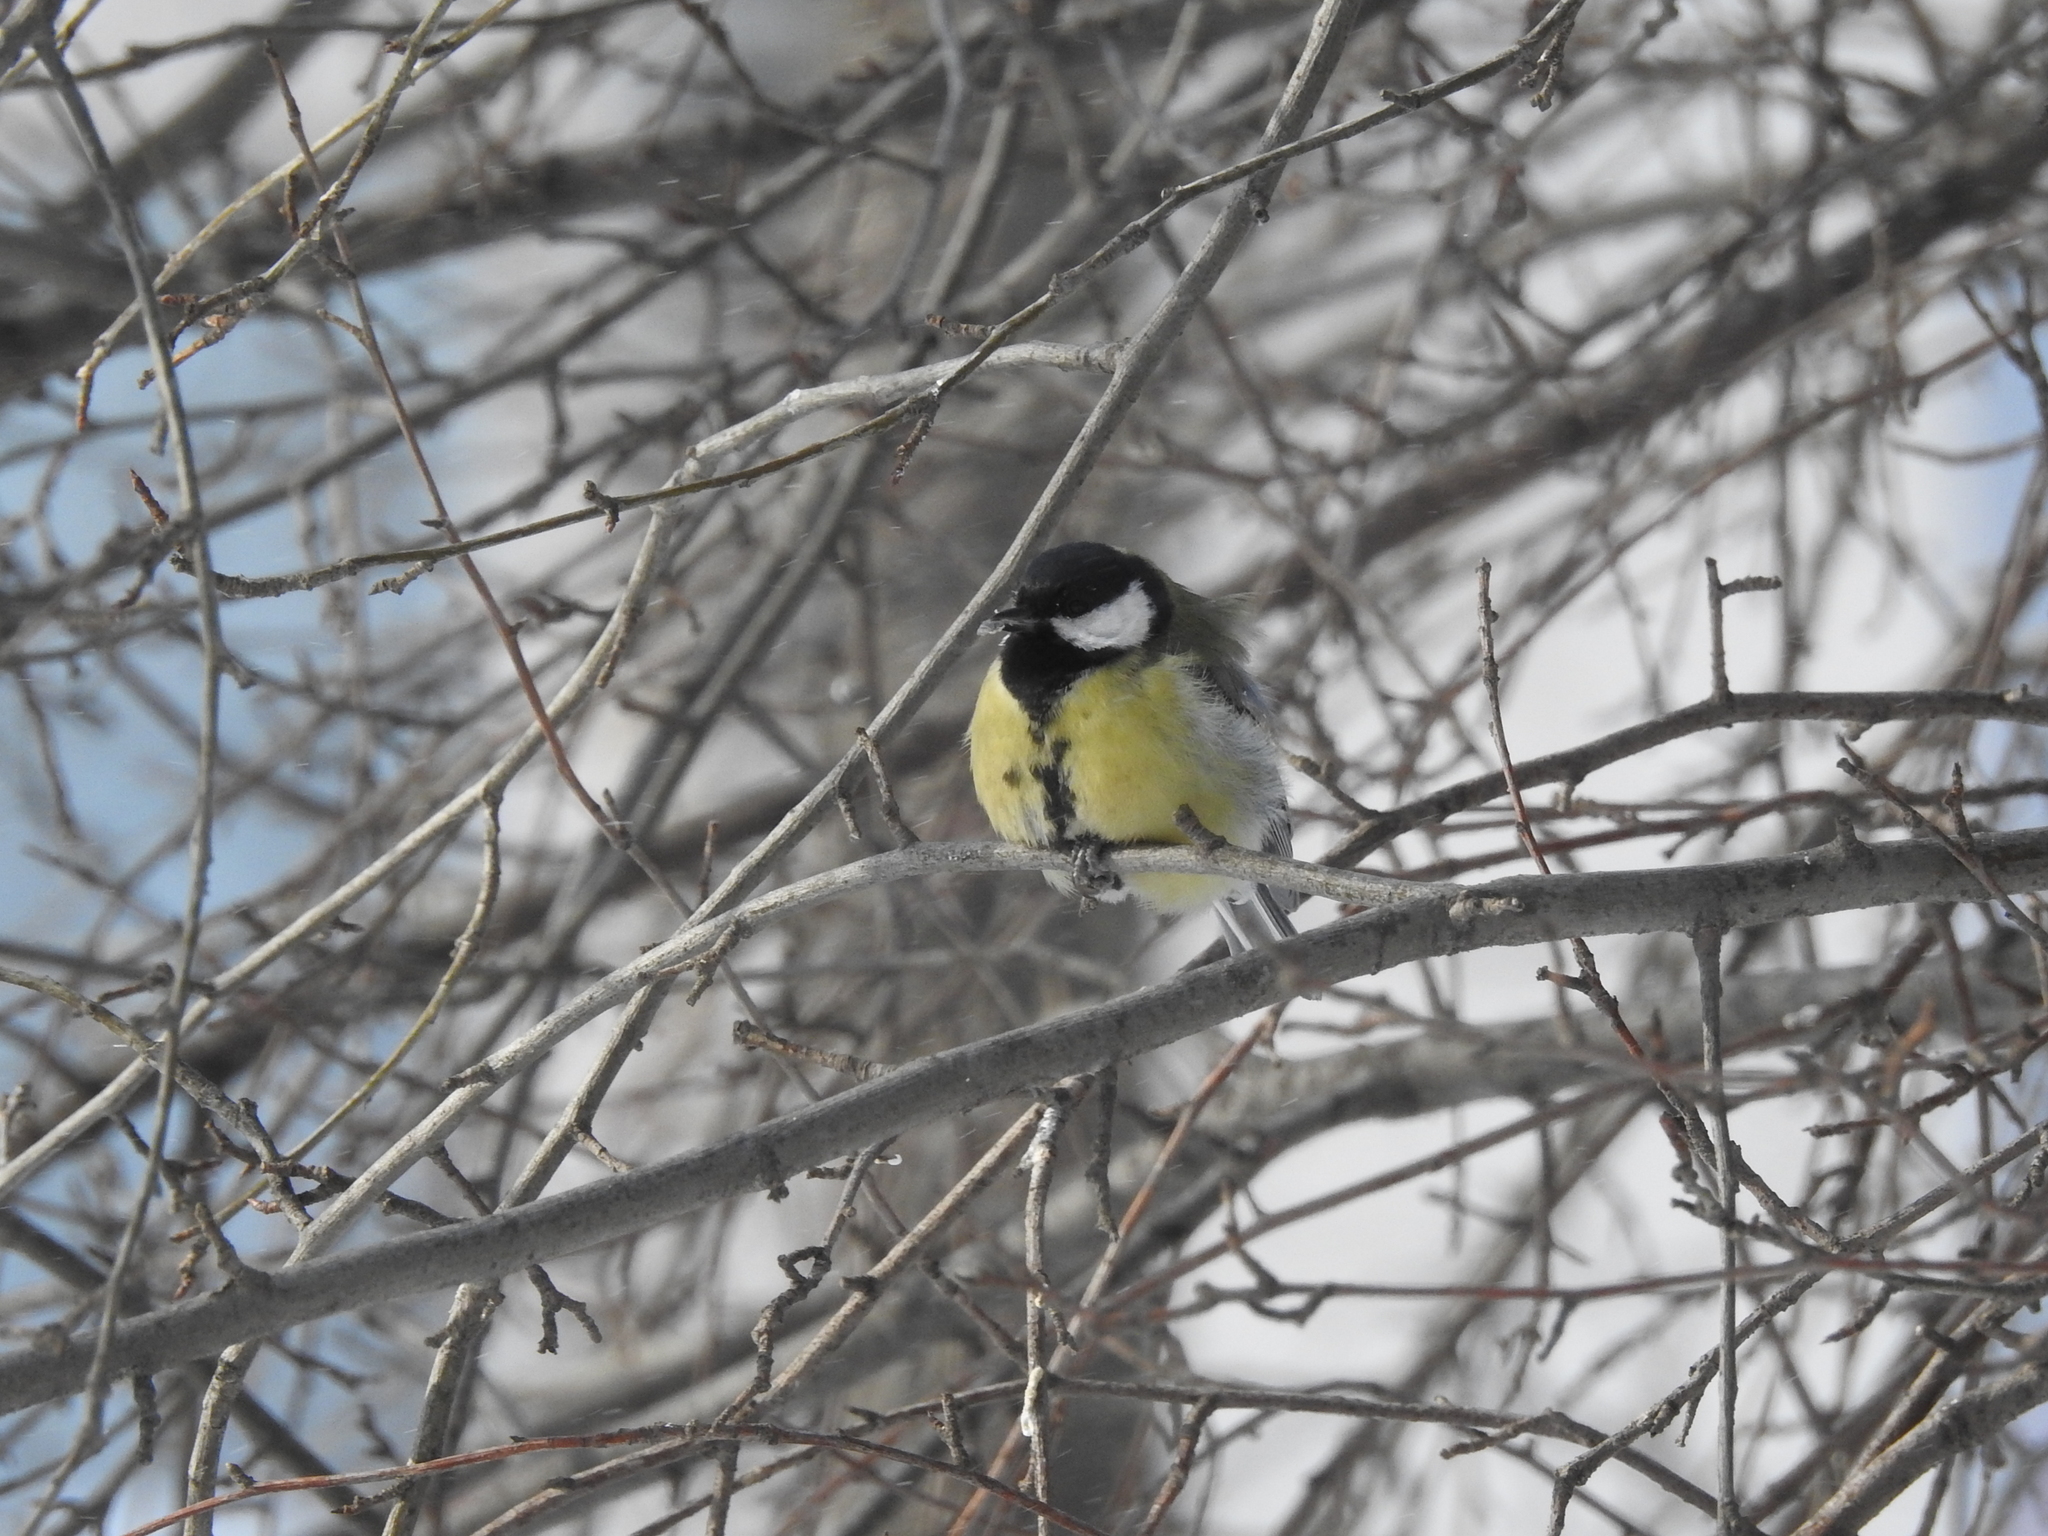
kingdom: Animalia
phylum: Chordata
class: Aves
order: Passeriformes
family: Paridae
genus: Parus
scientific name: Parus major
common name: Great tit
